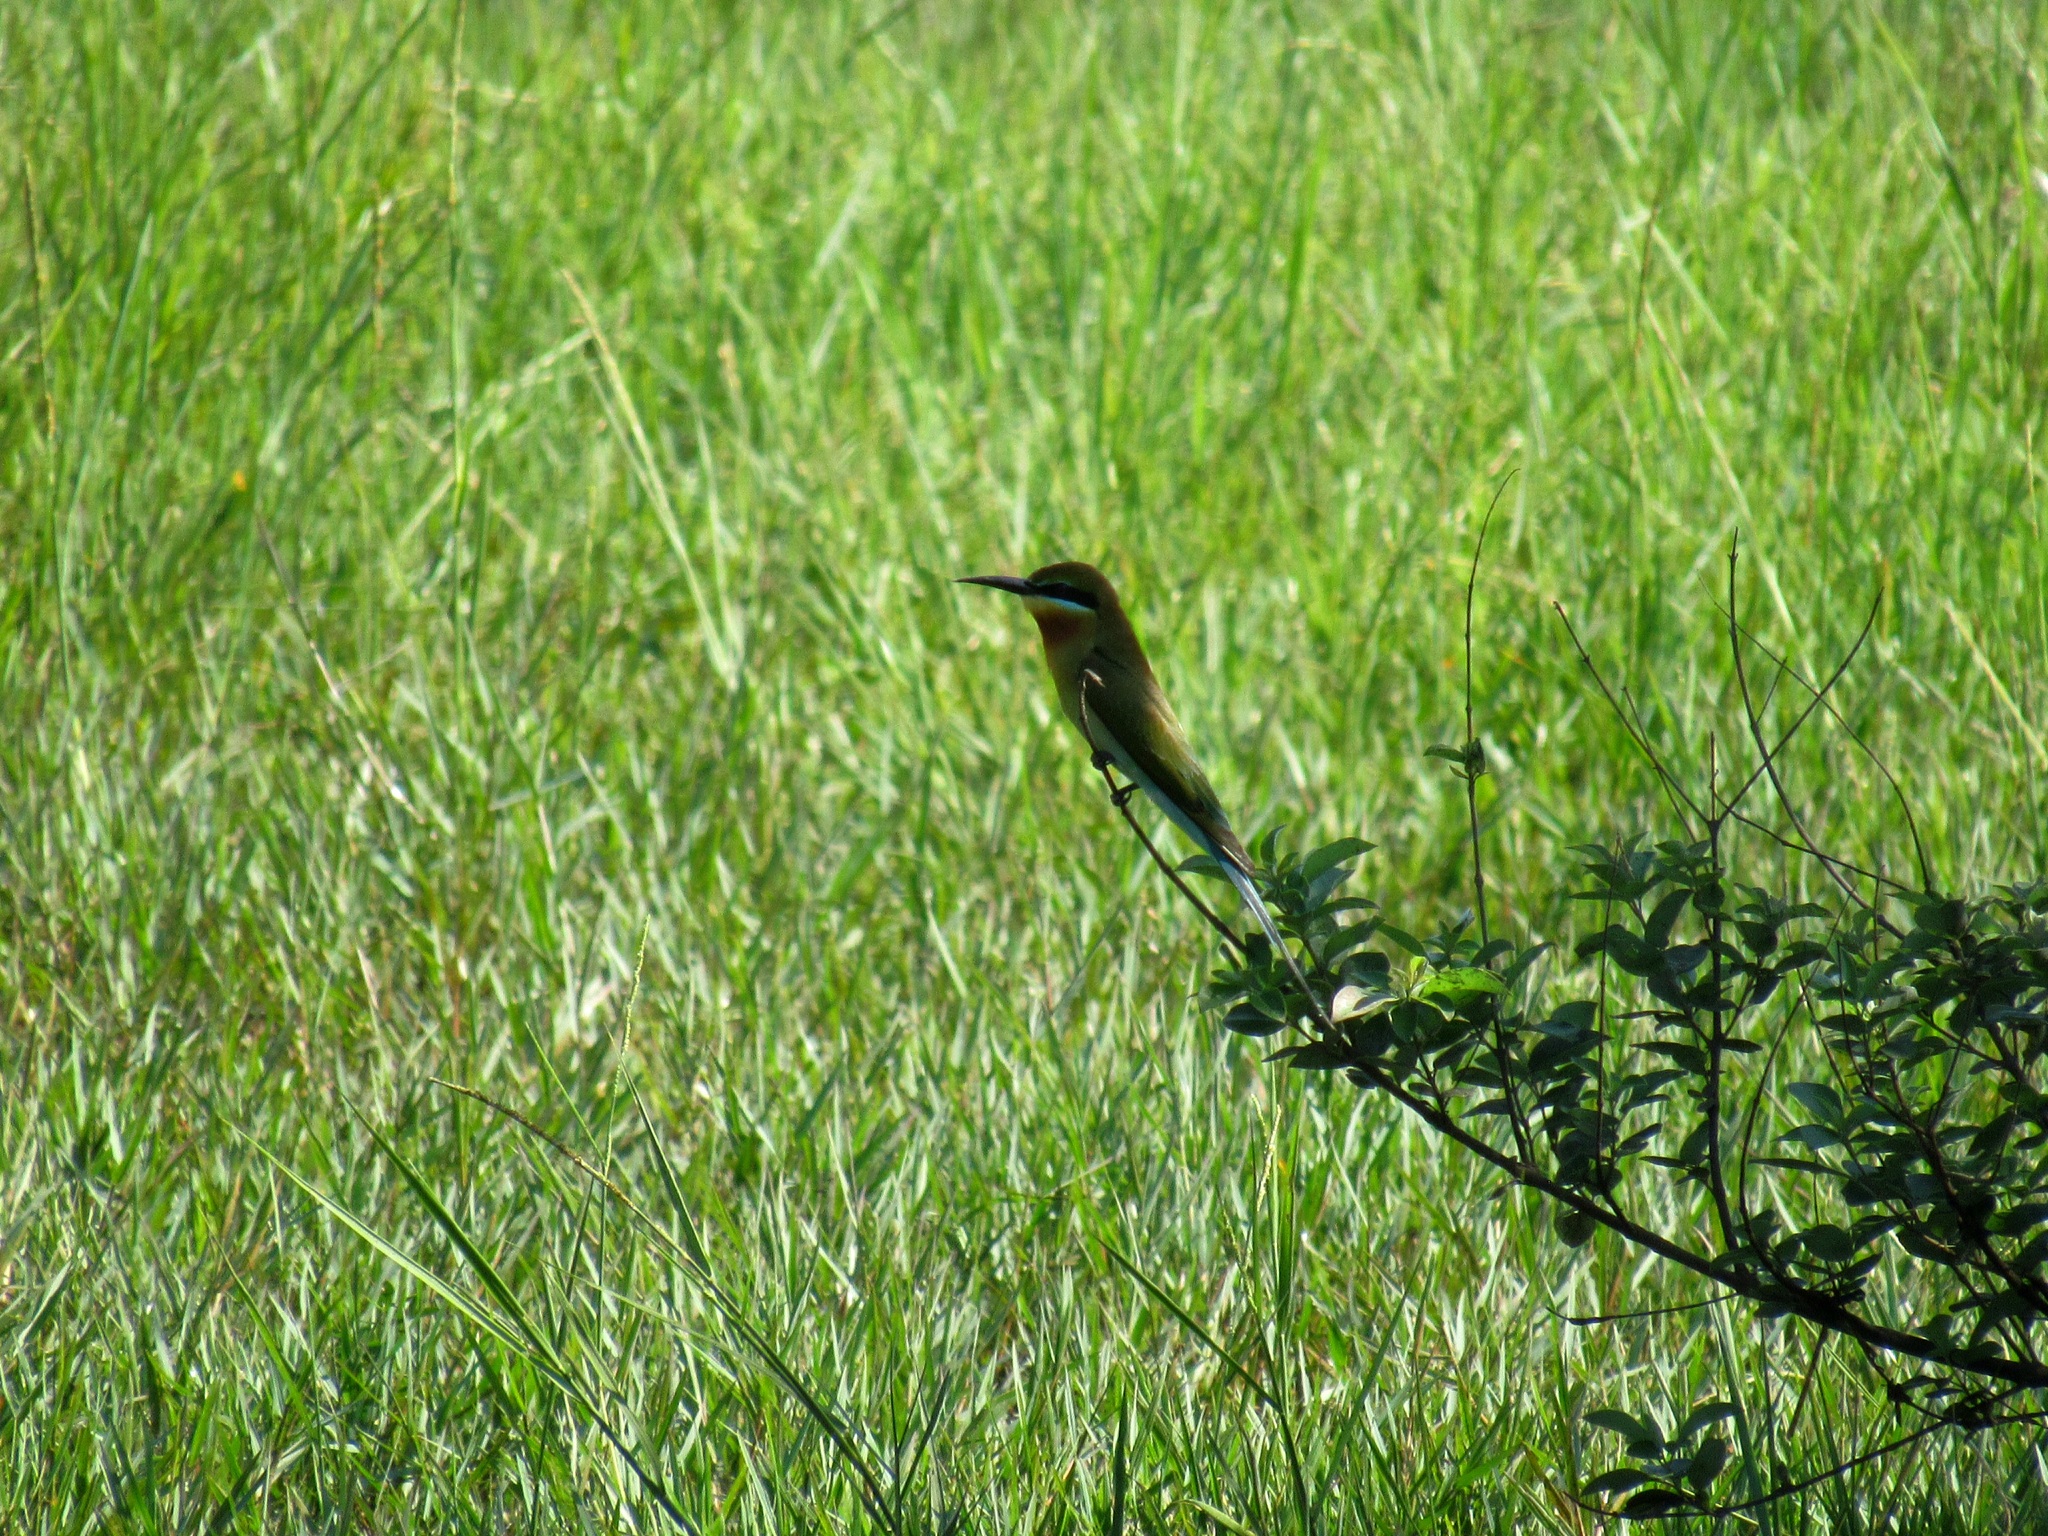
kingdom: Animalia
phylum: Chordata
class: Aves
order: Coraciiformes
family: Meropidae
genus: Merops
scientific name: Merops philippinus
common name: Blue-tailed bee-eater
